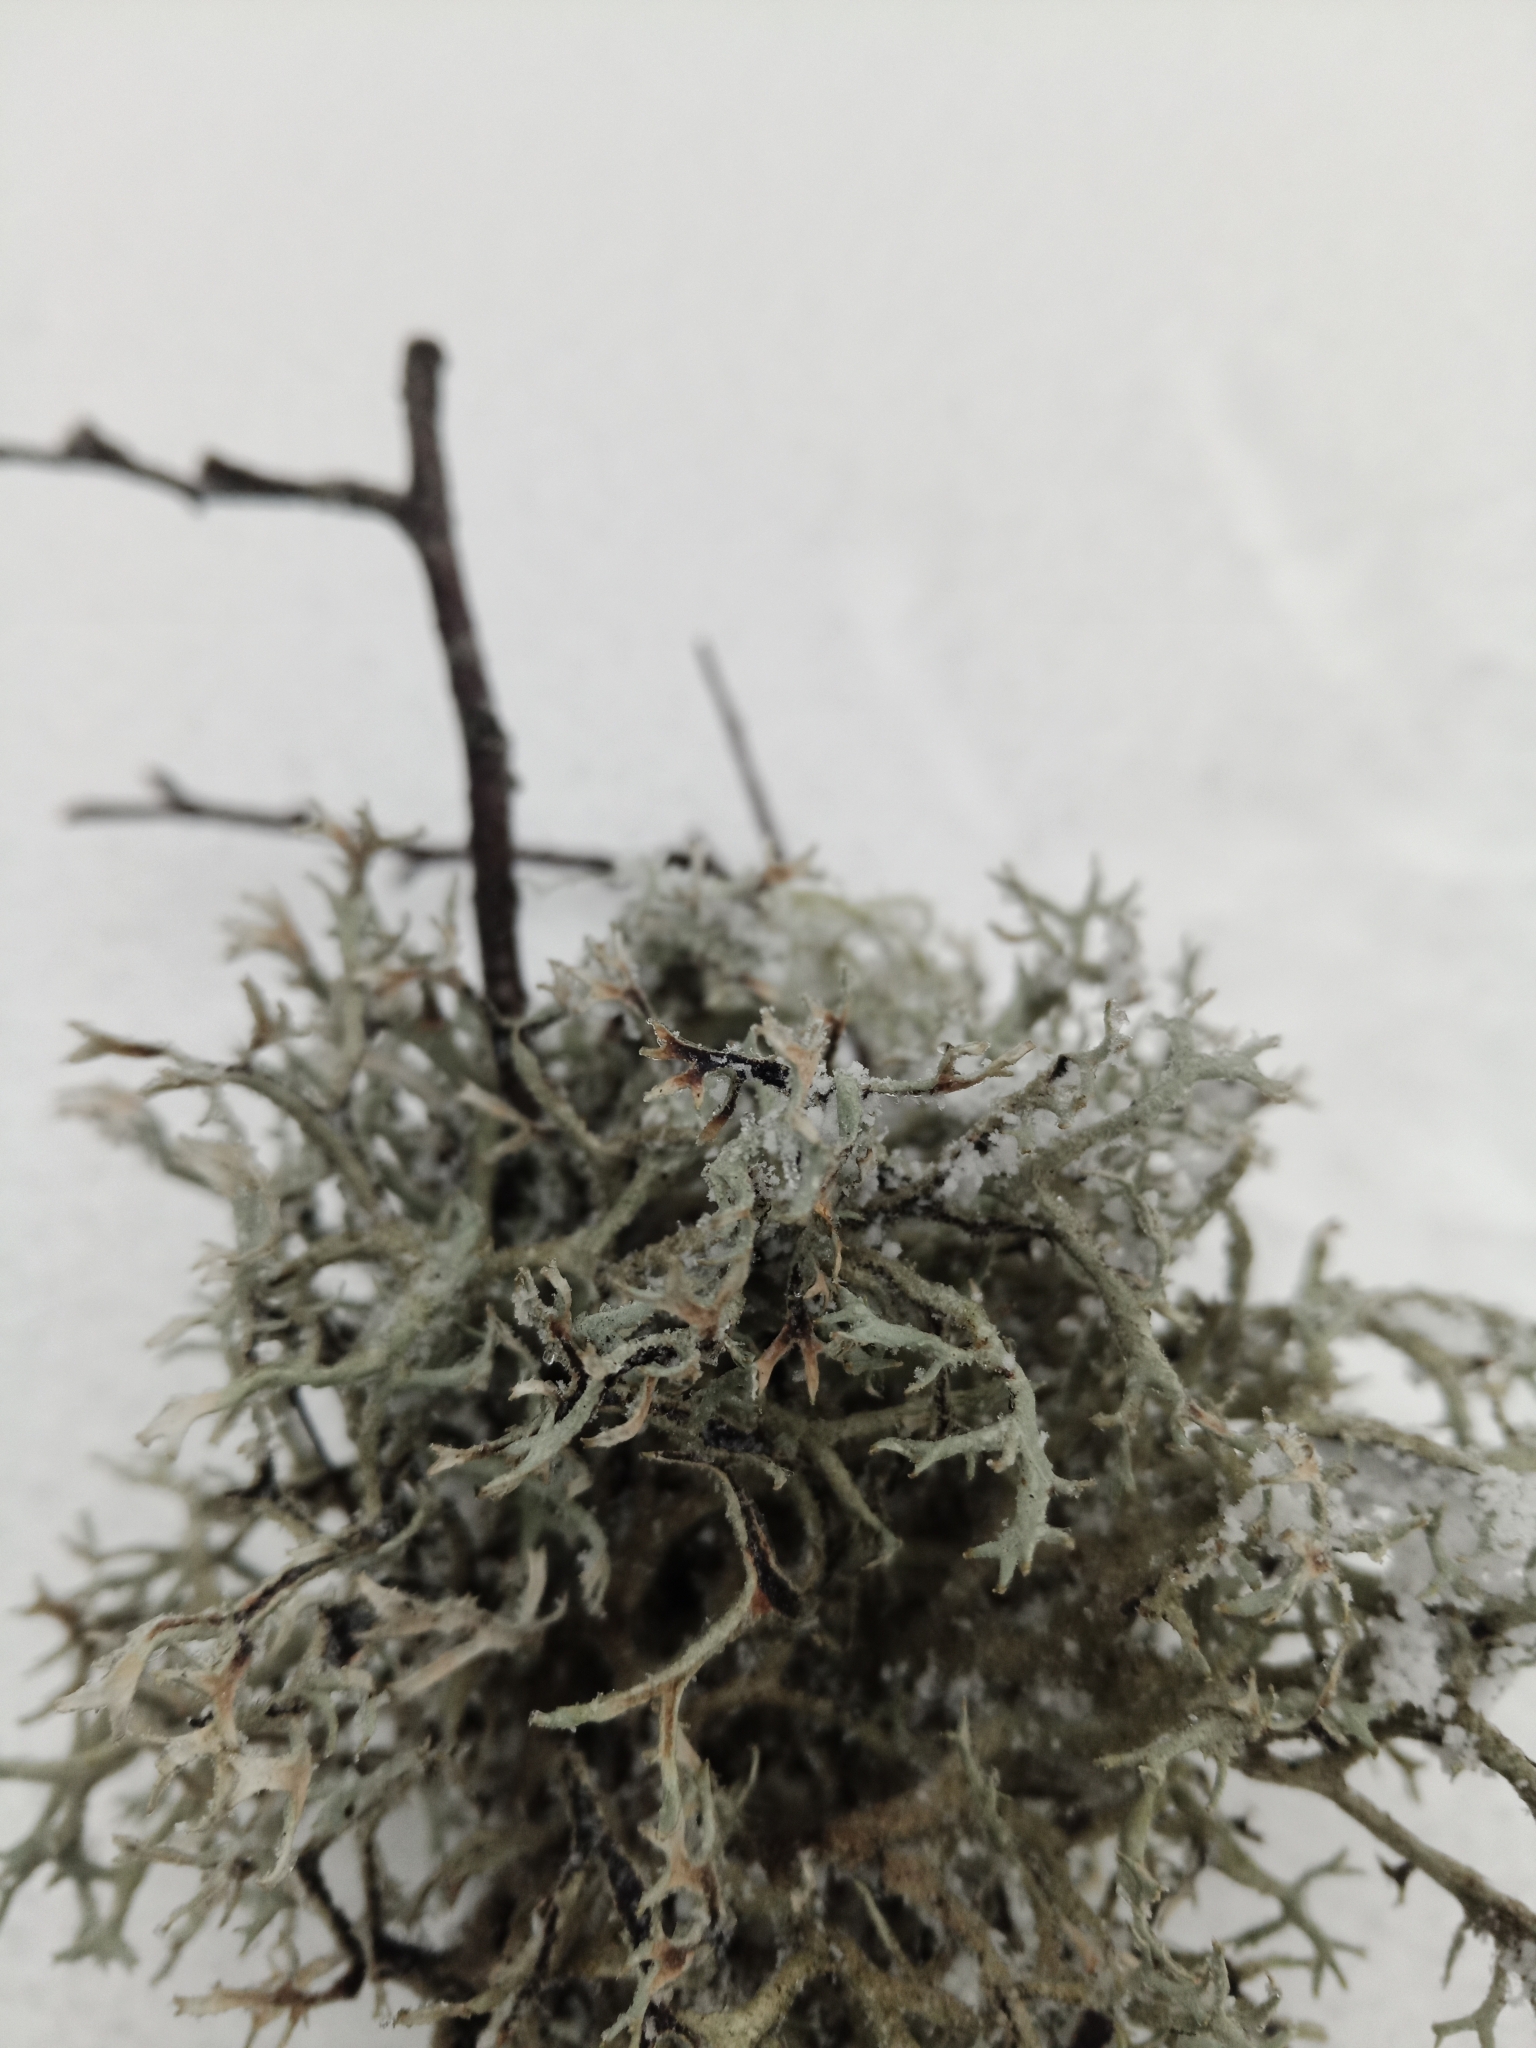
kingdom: Fungi
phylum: Ascomycota
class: Lecanoromycetes
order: Lecanorales
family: Parmeliaceae
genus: Pseudevernia
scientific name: Pseudevernia furfuracea
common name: Tree moss
